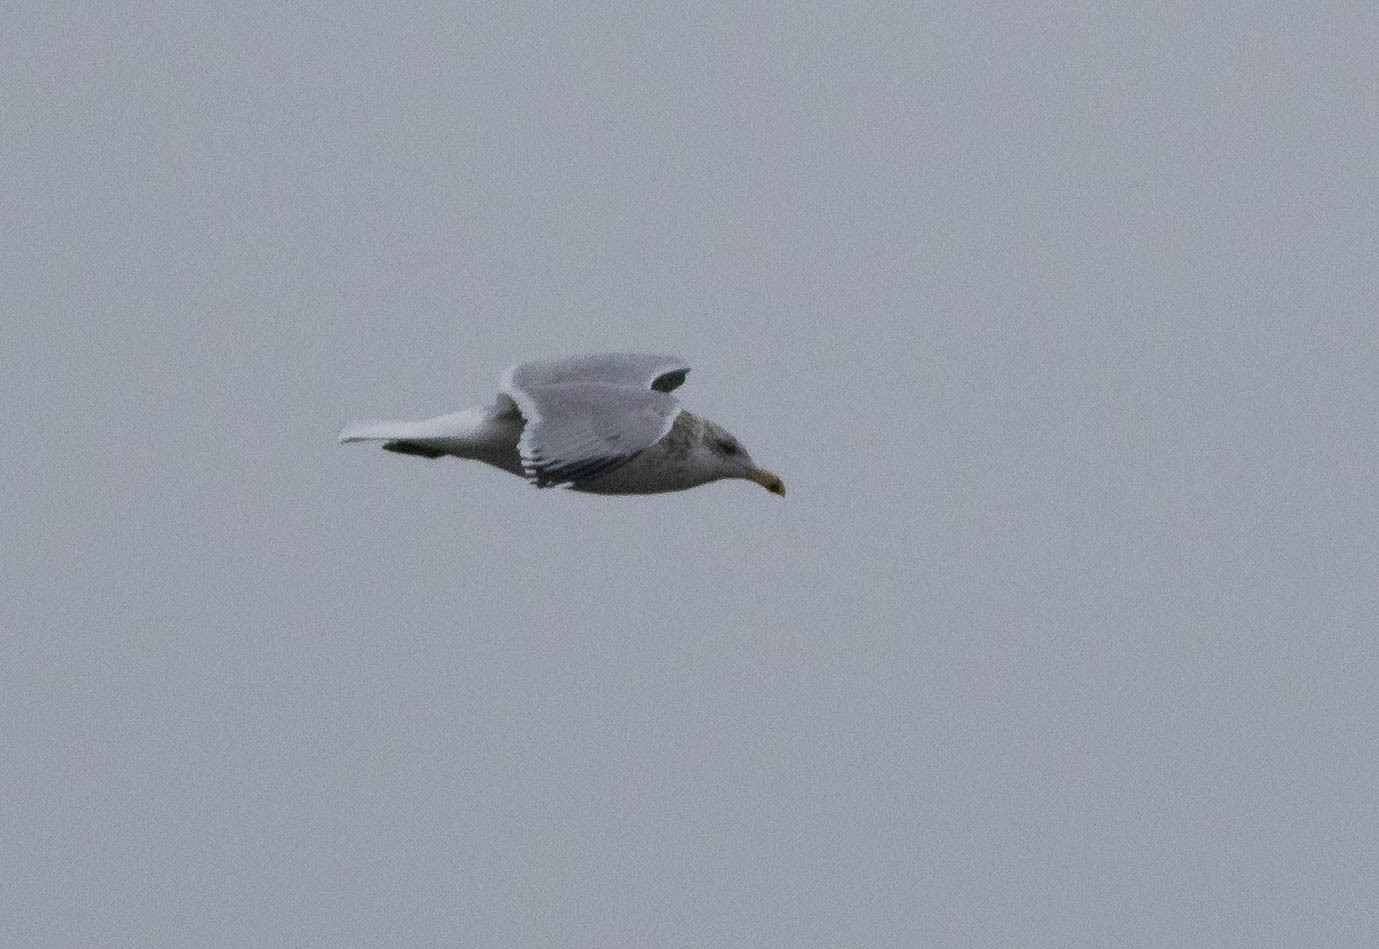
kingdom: Animalia
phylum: Chordata
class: Aves
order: Charadriiformes
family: Laridae
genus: Larus
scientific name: Larus argentatus
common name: Herring gull
